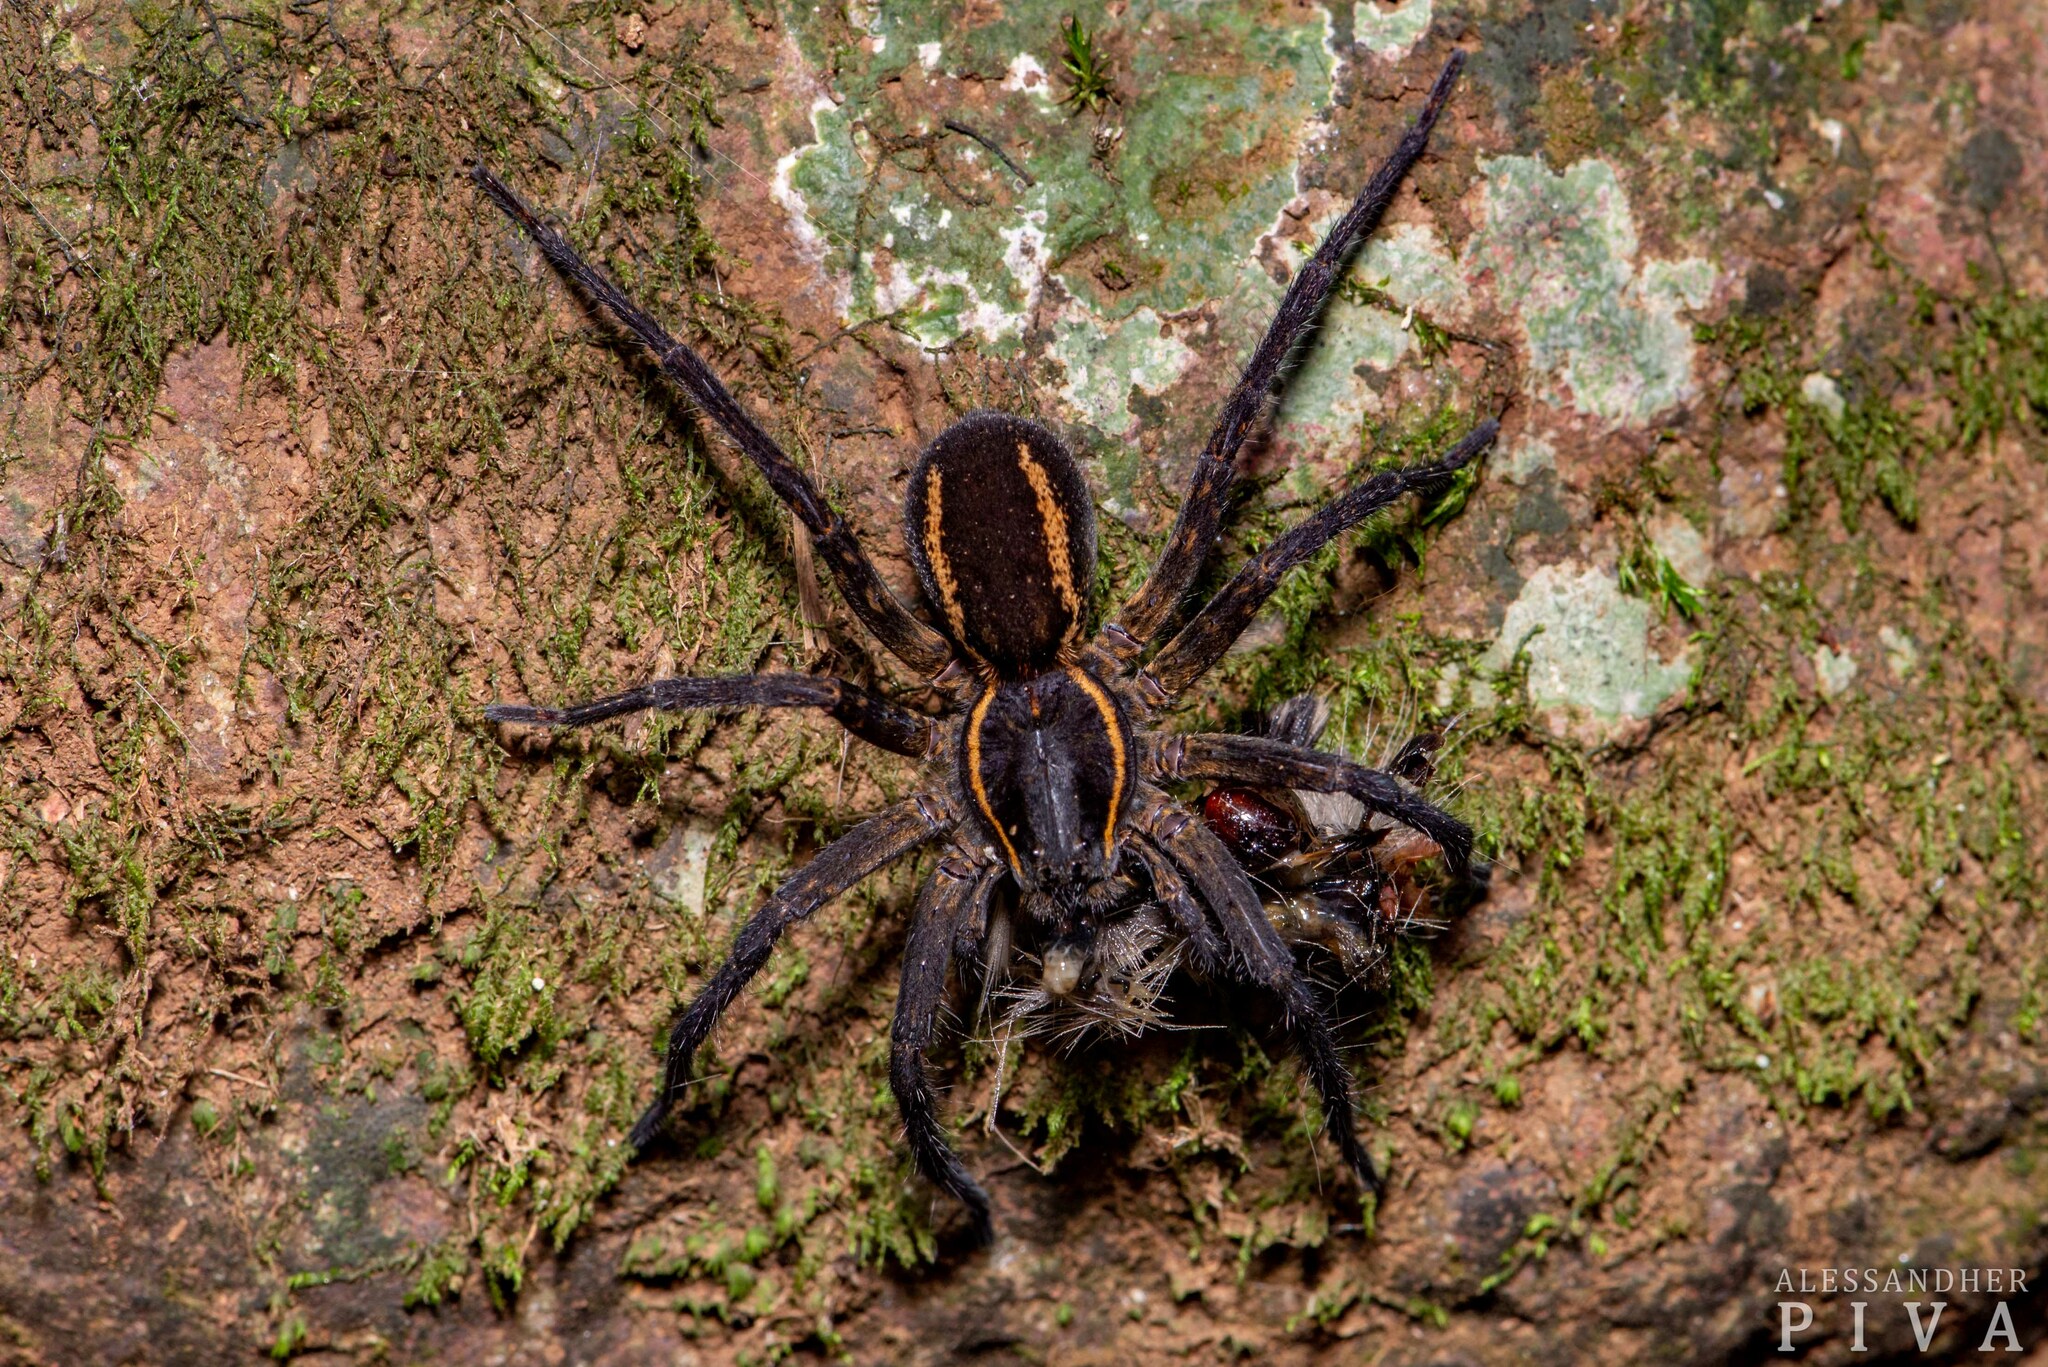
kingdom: Animalia
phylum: Arthropoda
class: Arachnida
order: Araneae
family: Lycosidae
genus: Aglaoctenus
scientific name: Aglaoctenus yacytata
